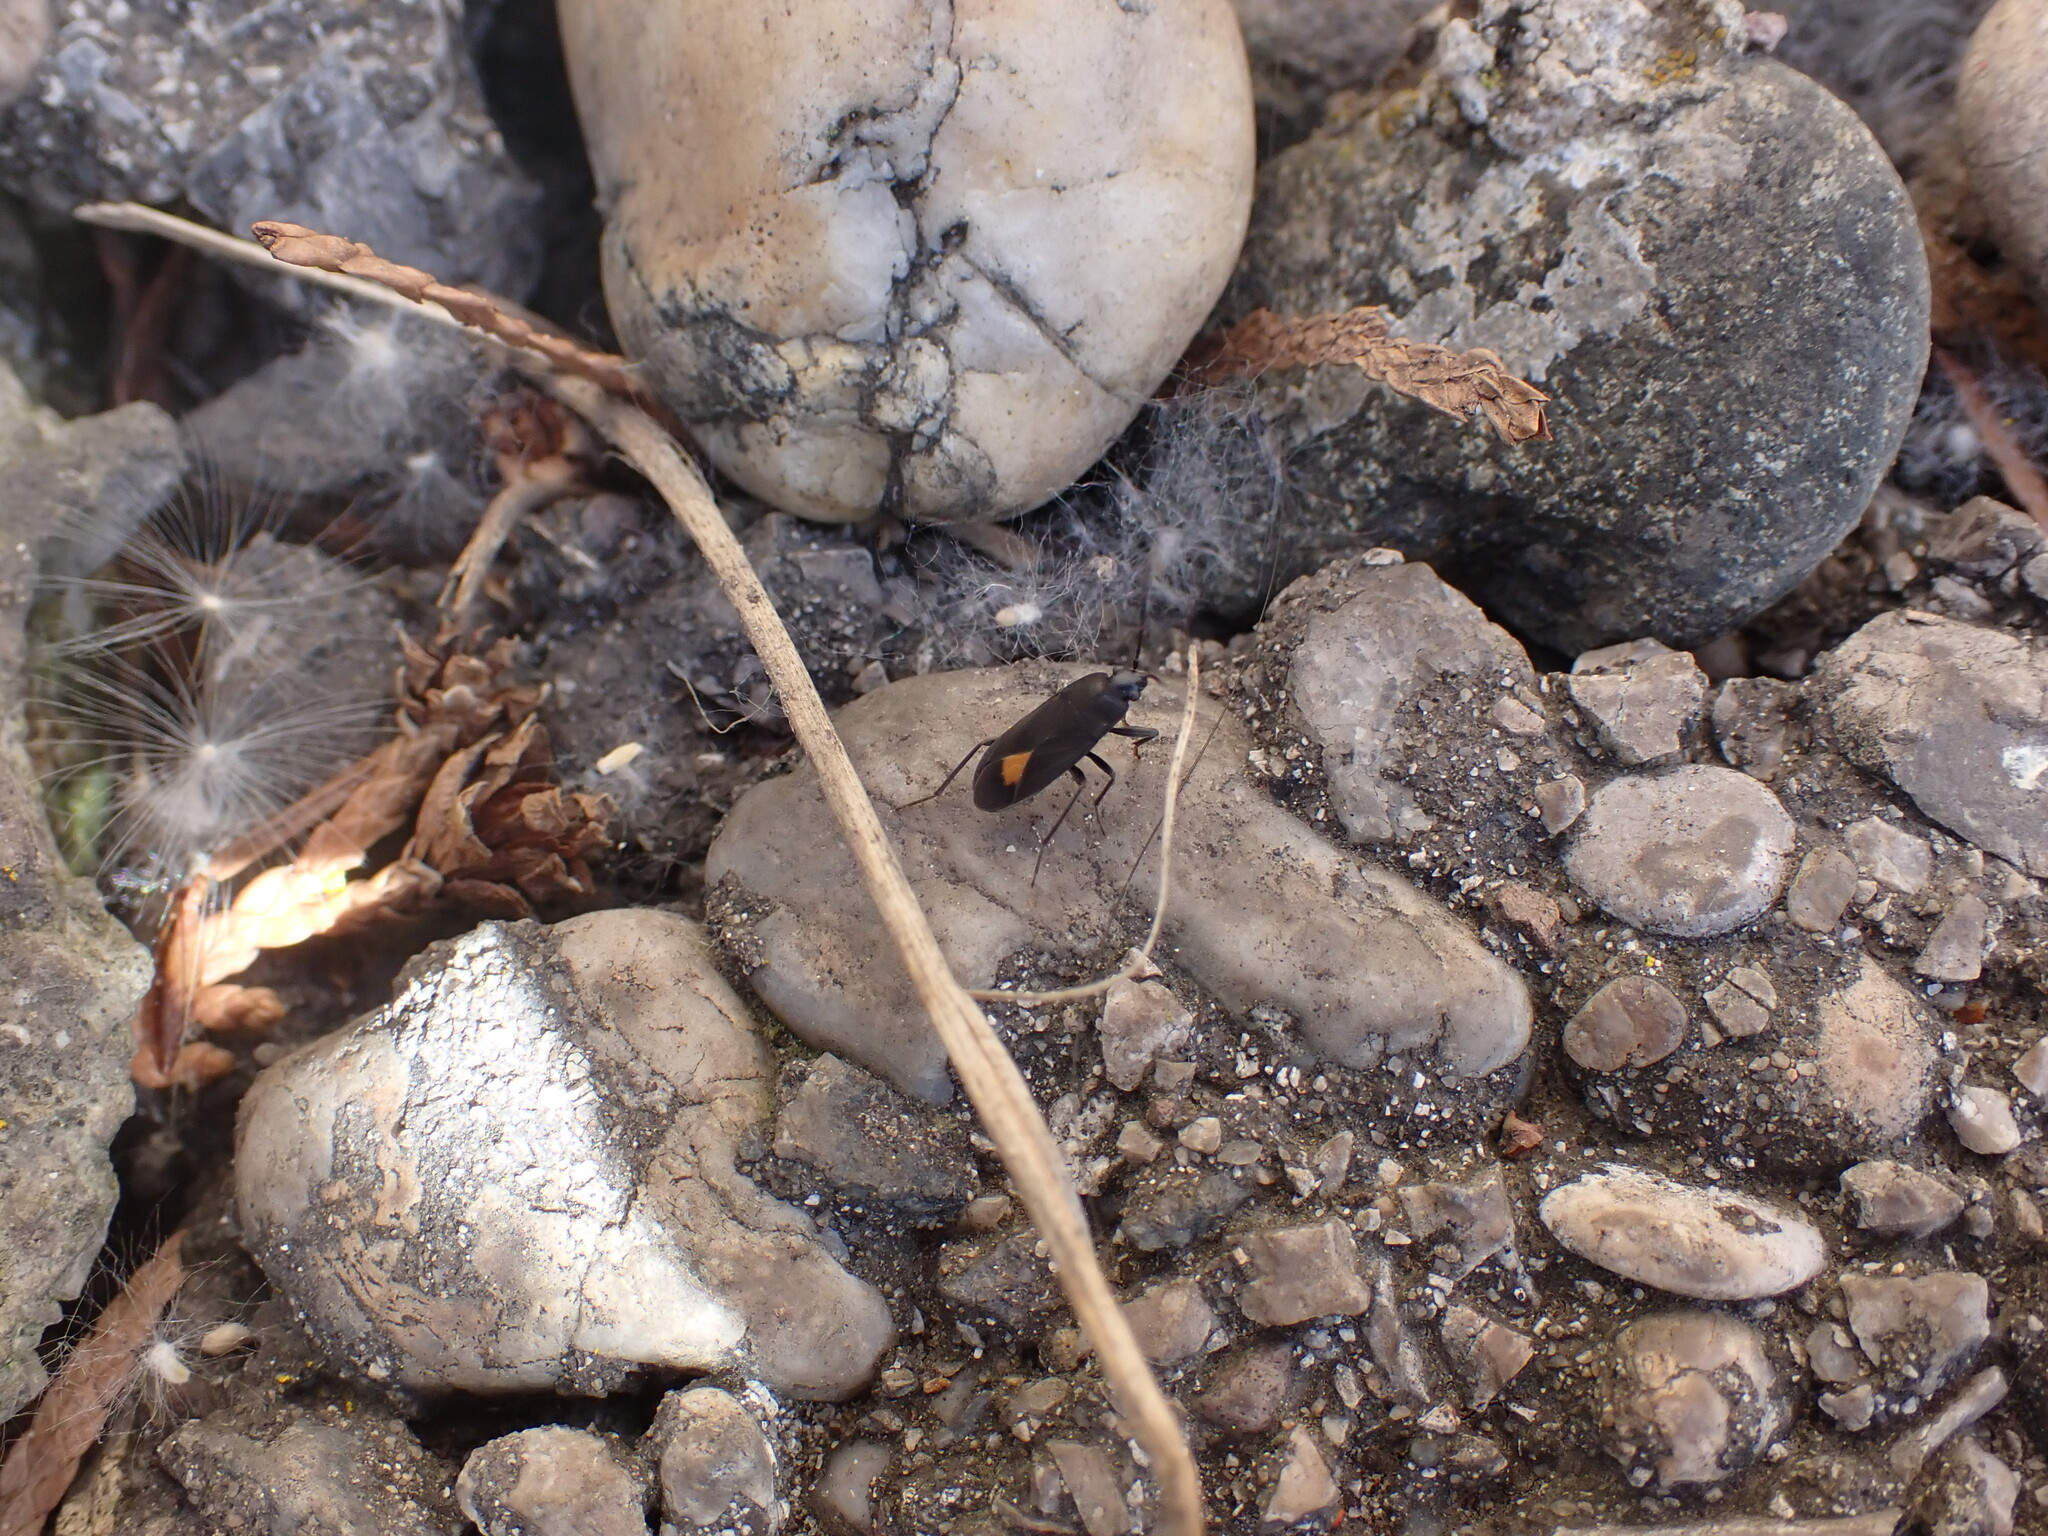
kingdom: Animalia
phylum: Arthropoda
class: Insecta
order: Hemiptera
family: Rhyparochromidae
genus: Aphanus
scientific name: Aphanus rolandri
